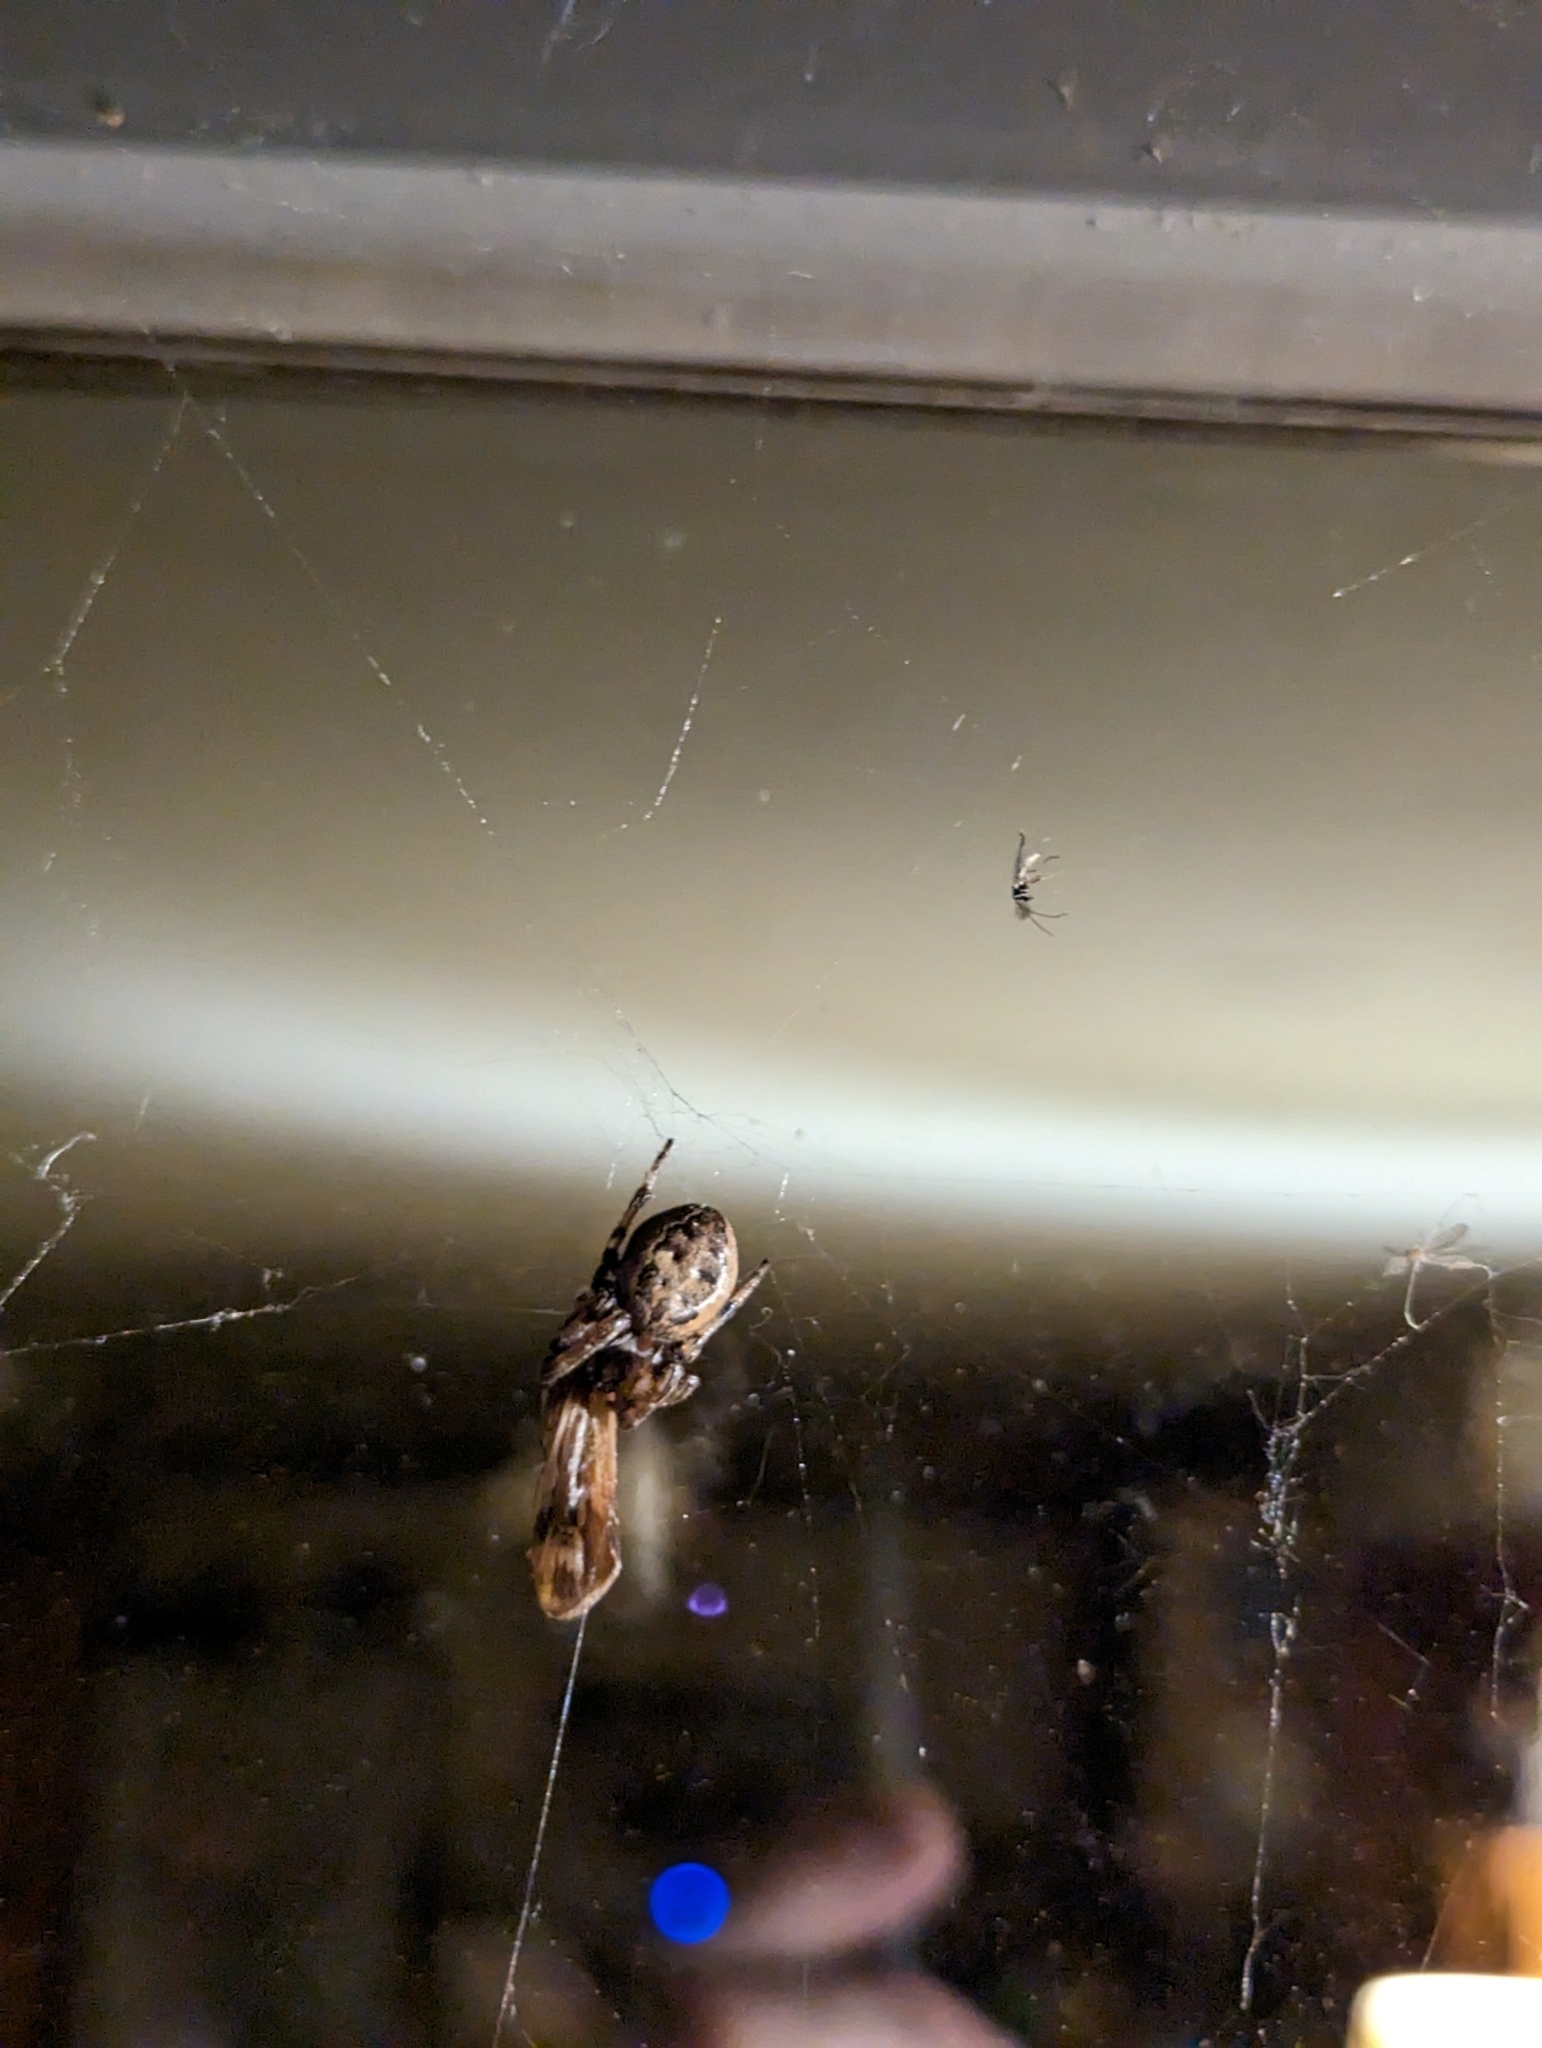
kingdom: Animalia
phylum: Arthropoda
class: Arachnida
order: Araneae
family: Araneidae
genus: Larinioides
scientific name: Larinioides cornutus
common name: Furrow orbweaver
